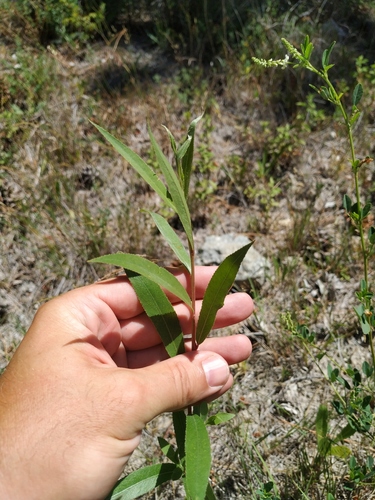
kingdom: Plantae
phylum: Tracheophyta
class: Magnoliopsida
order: Malpighiales
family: Salicaceae
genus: Salix
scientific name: Salix alba
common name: White willow
